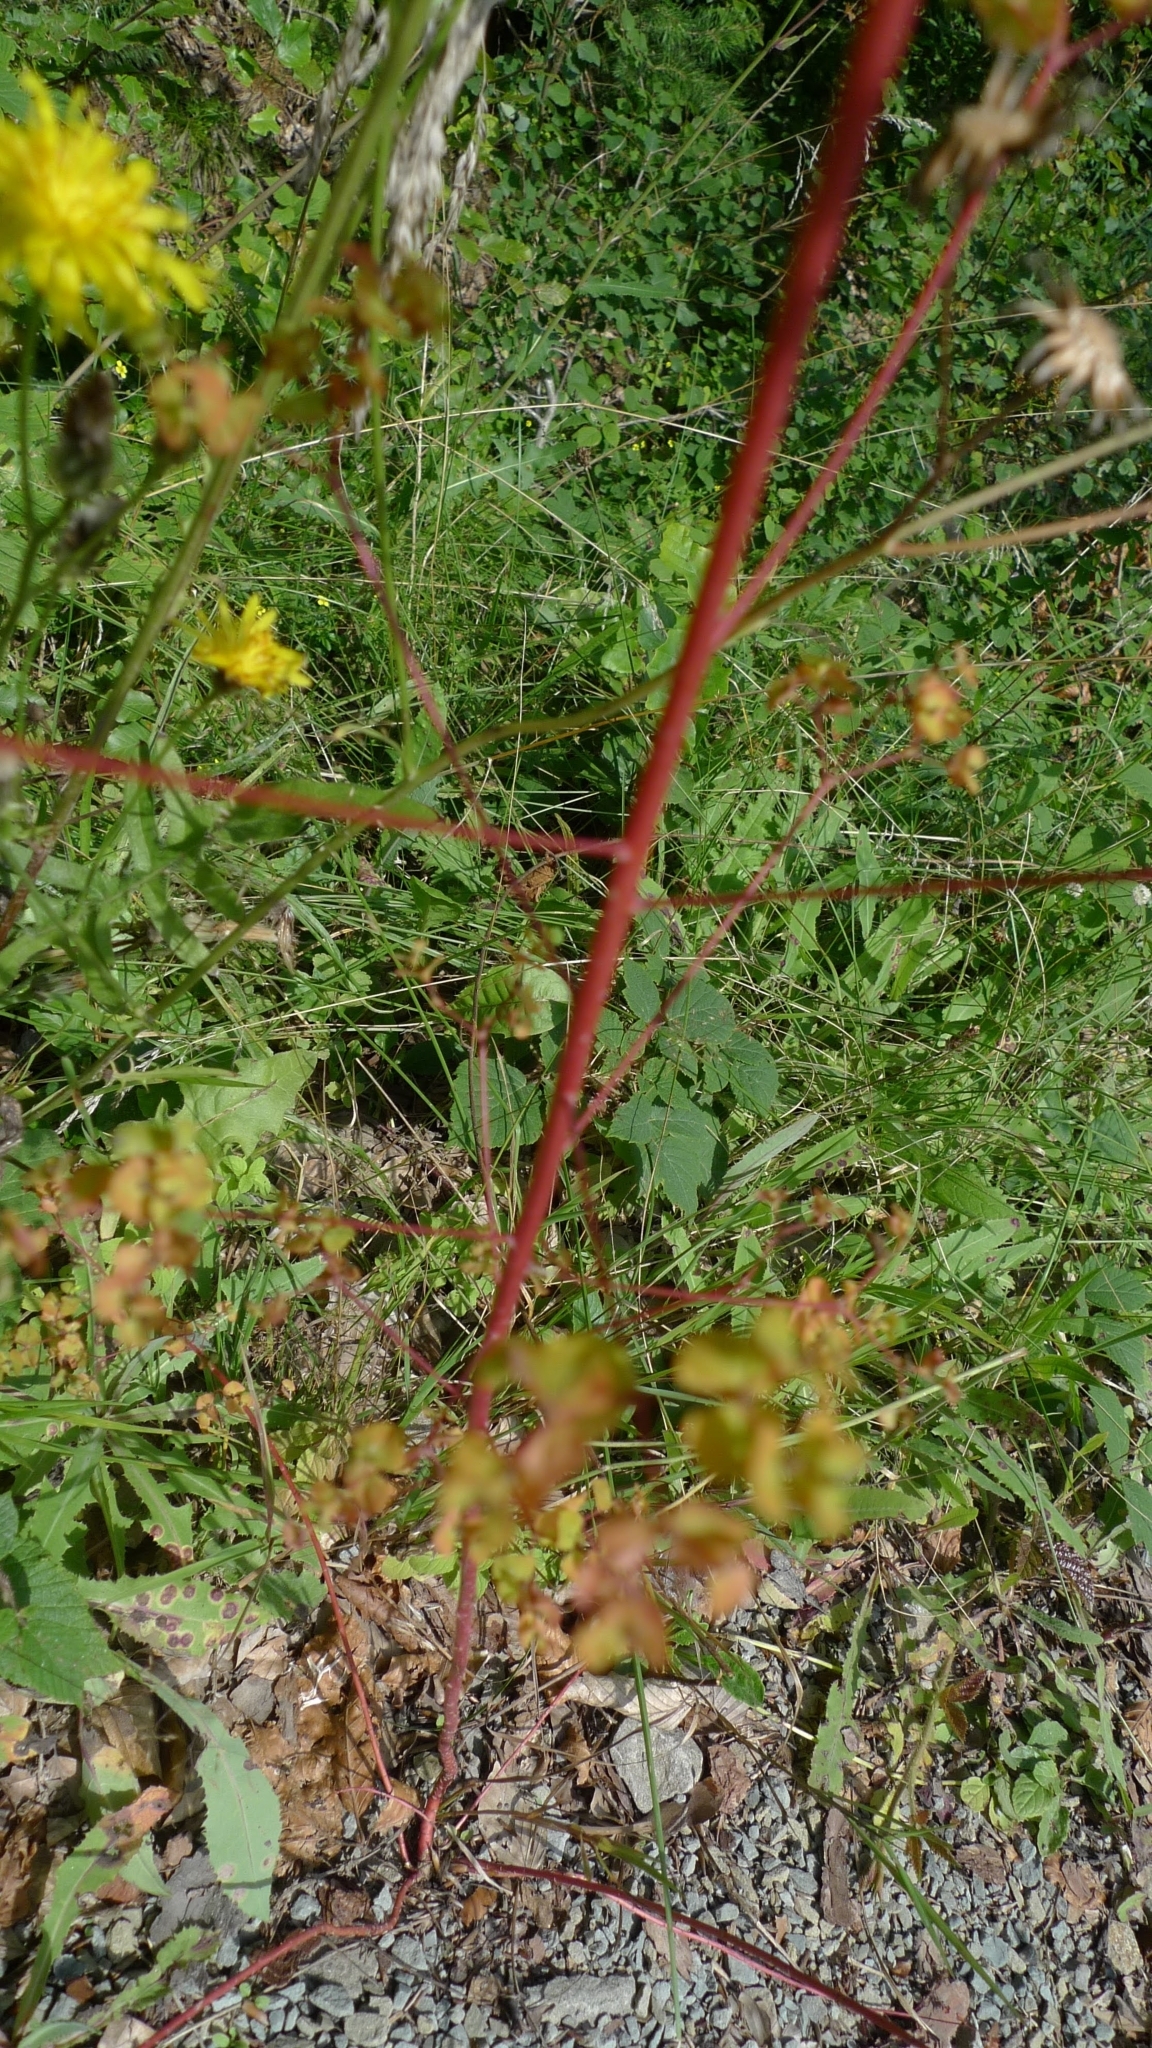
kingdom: Plantae
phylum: Tracheophyta
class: Magnoliopsida
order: Malpighiales
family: Euphorbiaceae
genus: Euphorbia
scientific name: Euphorbia stricta
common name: Upright spurge
